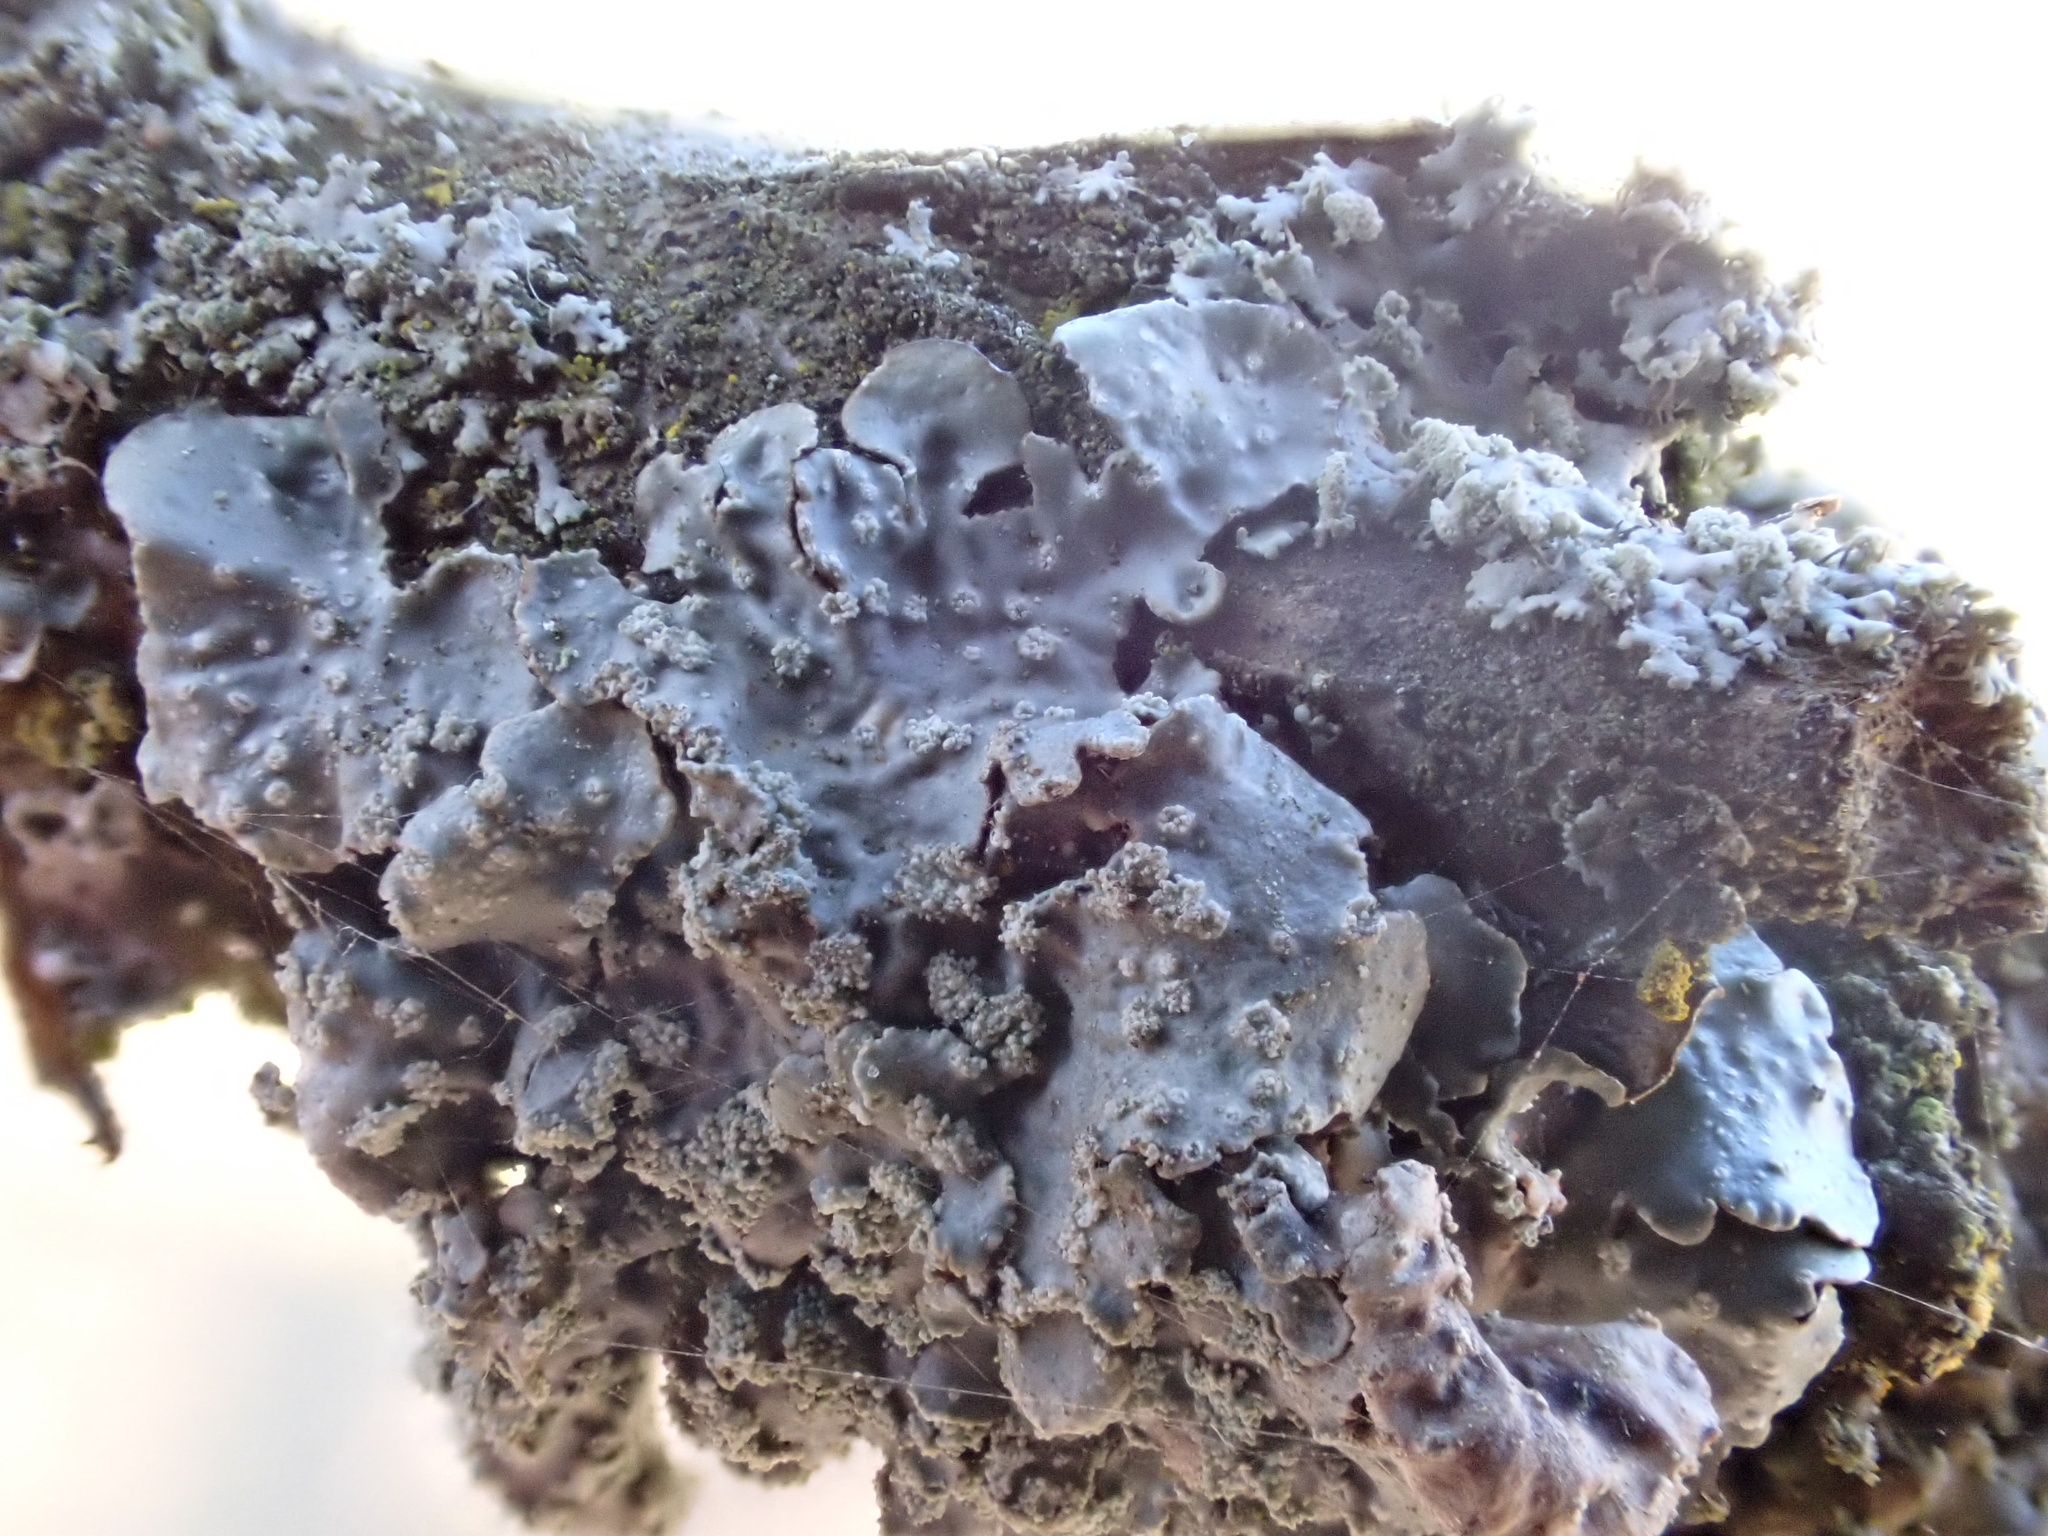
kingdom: Fungi
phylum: Ascomycota
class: Lecanoromycetes
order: Lecanorales
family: Parmeliaceae
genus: Punctelia
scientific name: Punctelia
